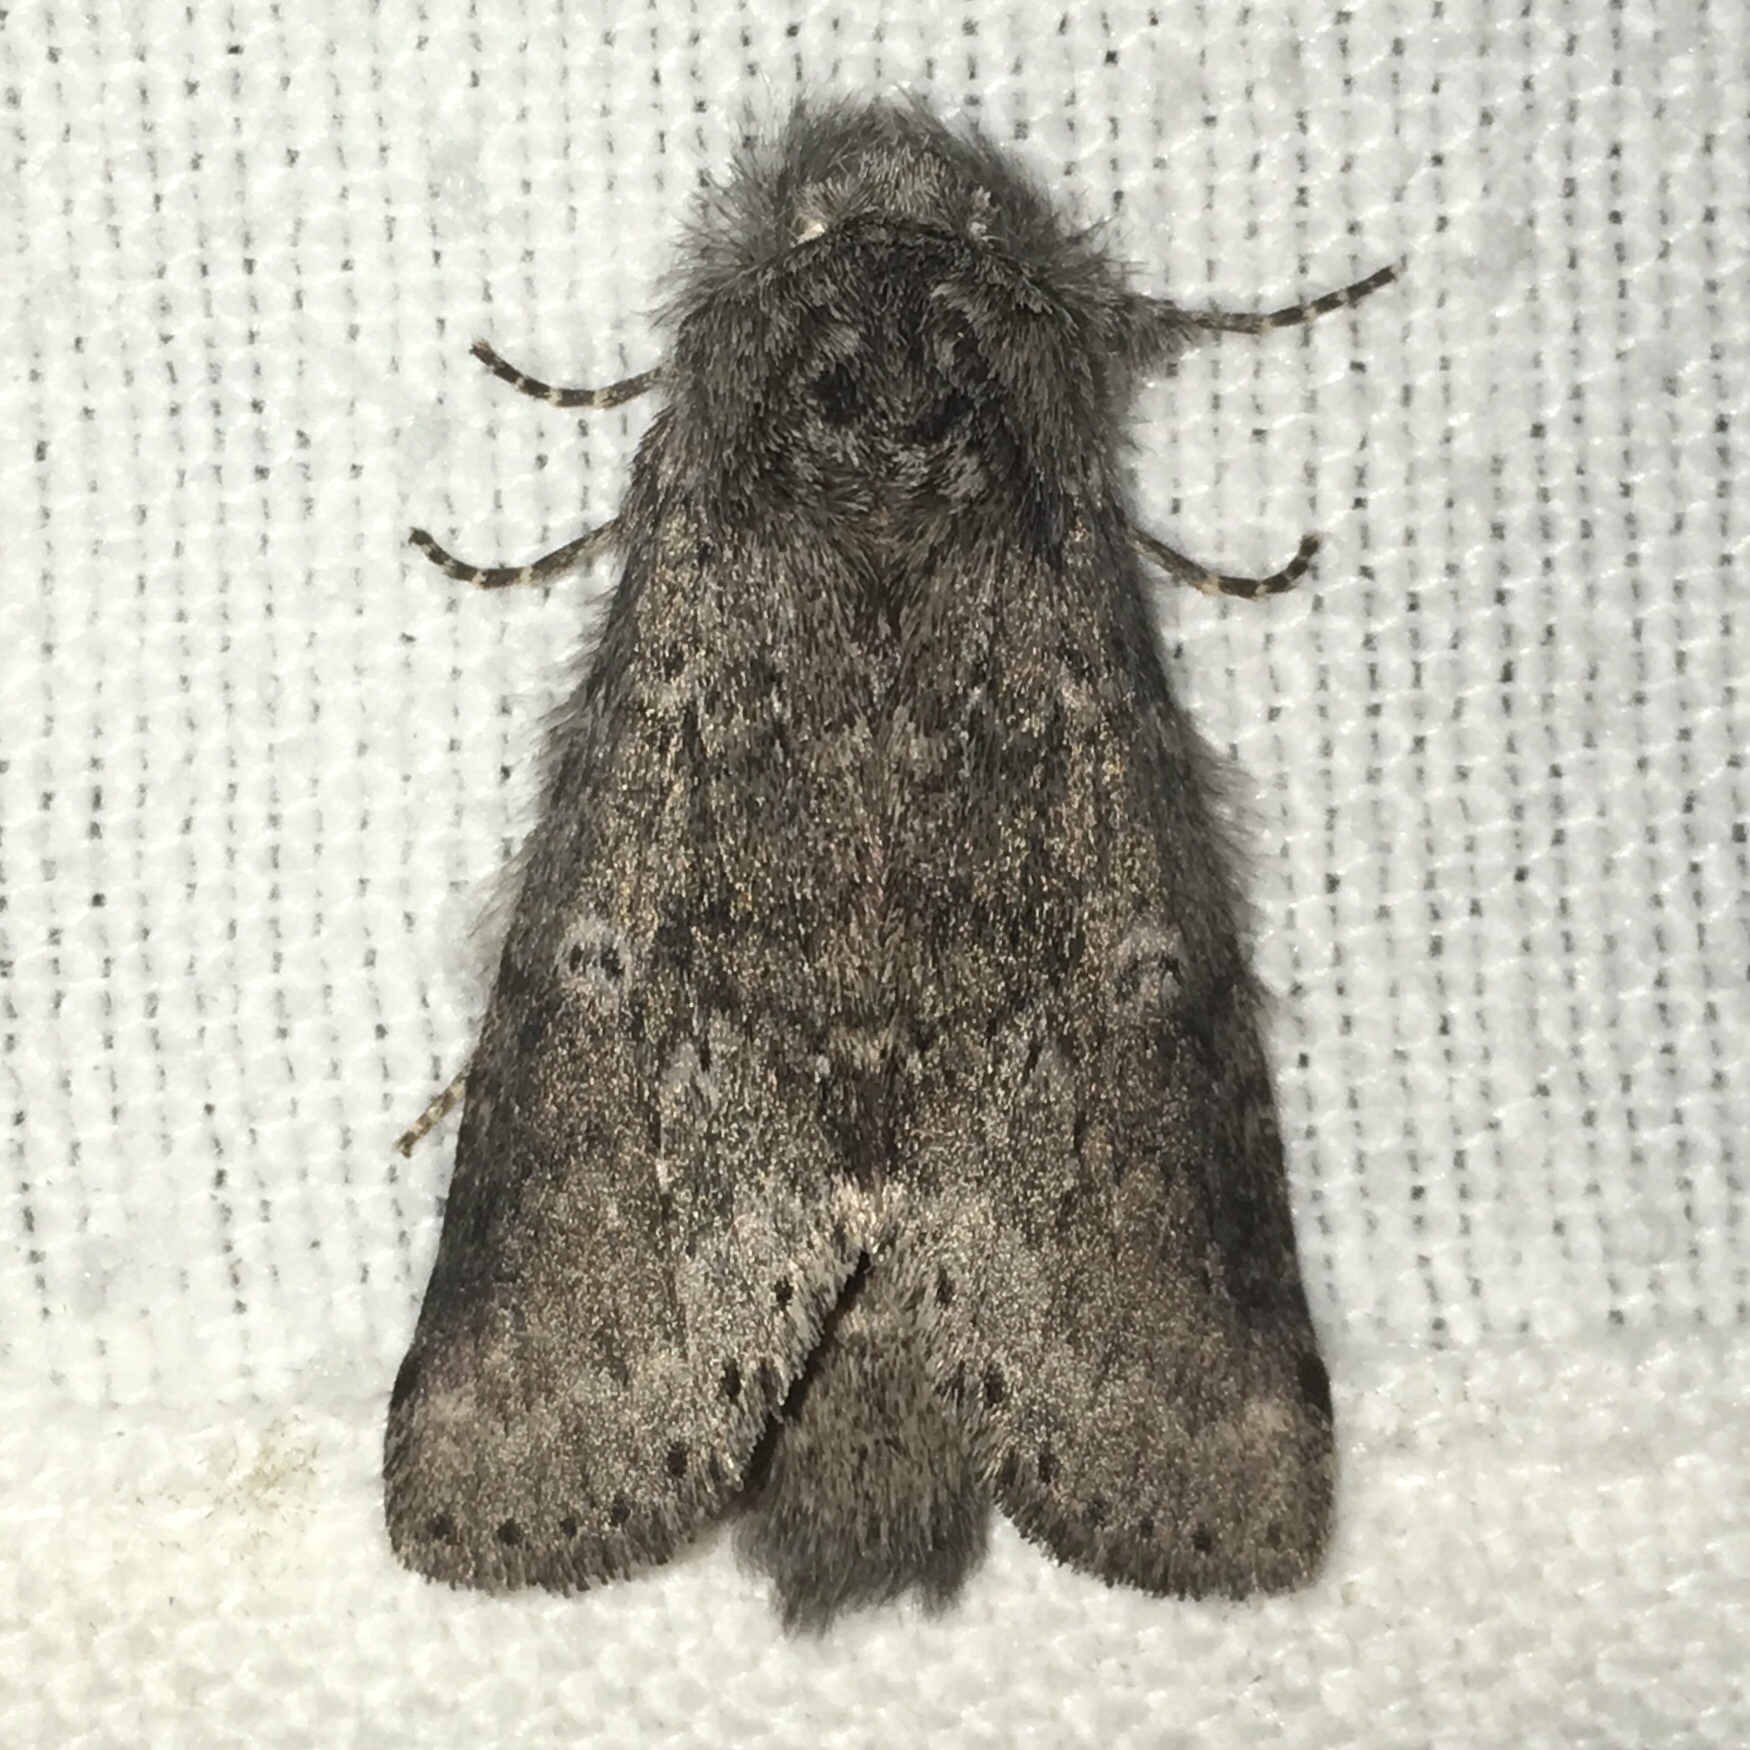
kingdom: Animalia
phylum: Arthropoda
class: Insecta
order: Lepidoptera
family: Notodontidae
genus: Lochmaeus
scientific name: Lochmaeus manteo
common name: Variable oakleaf caterpillar moth
